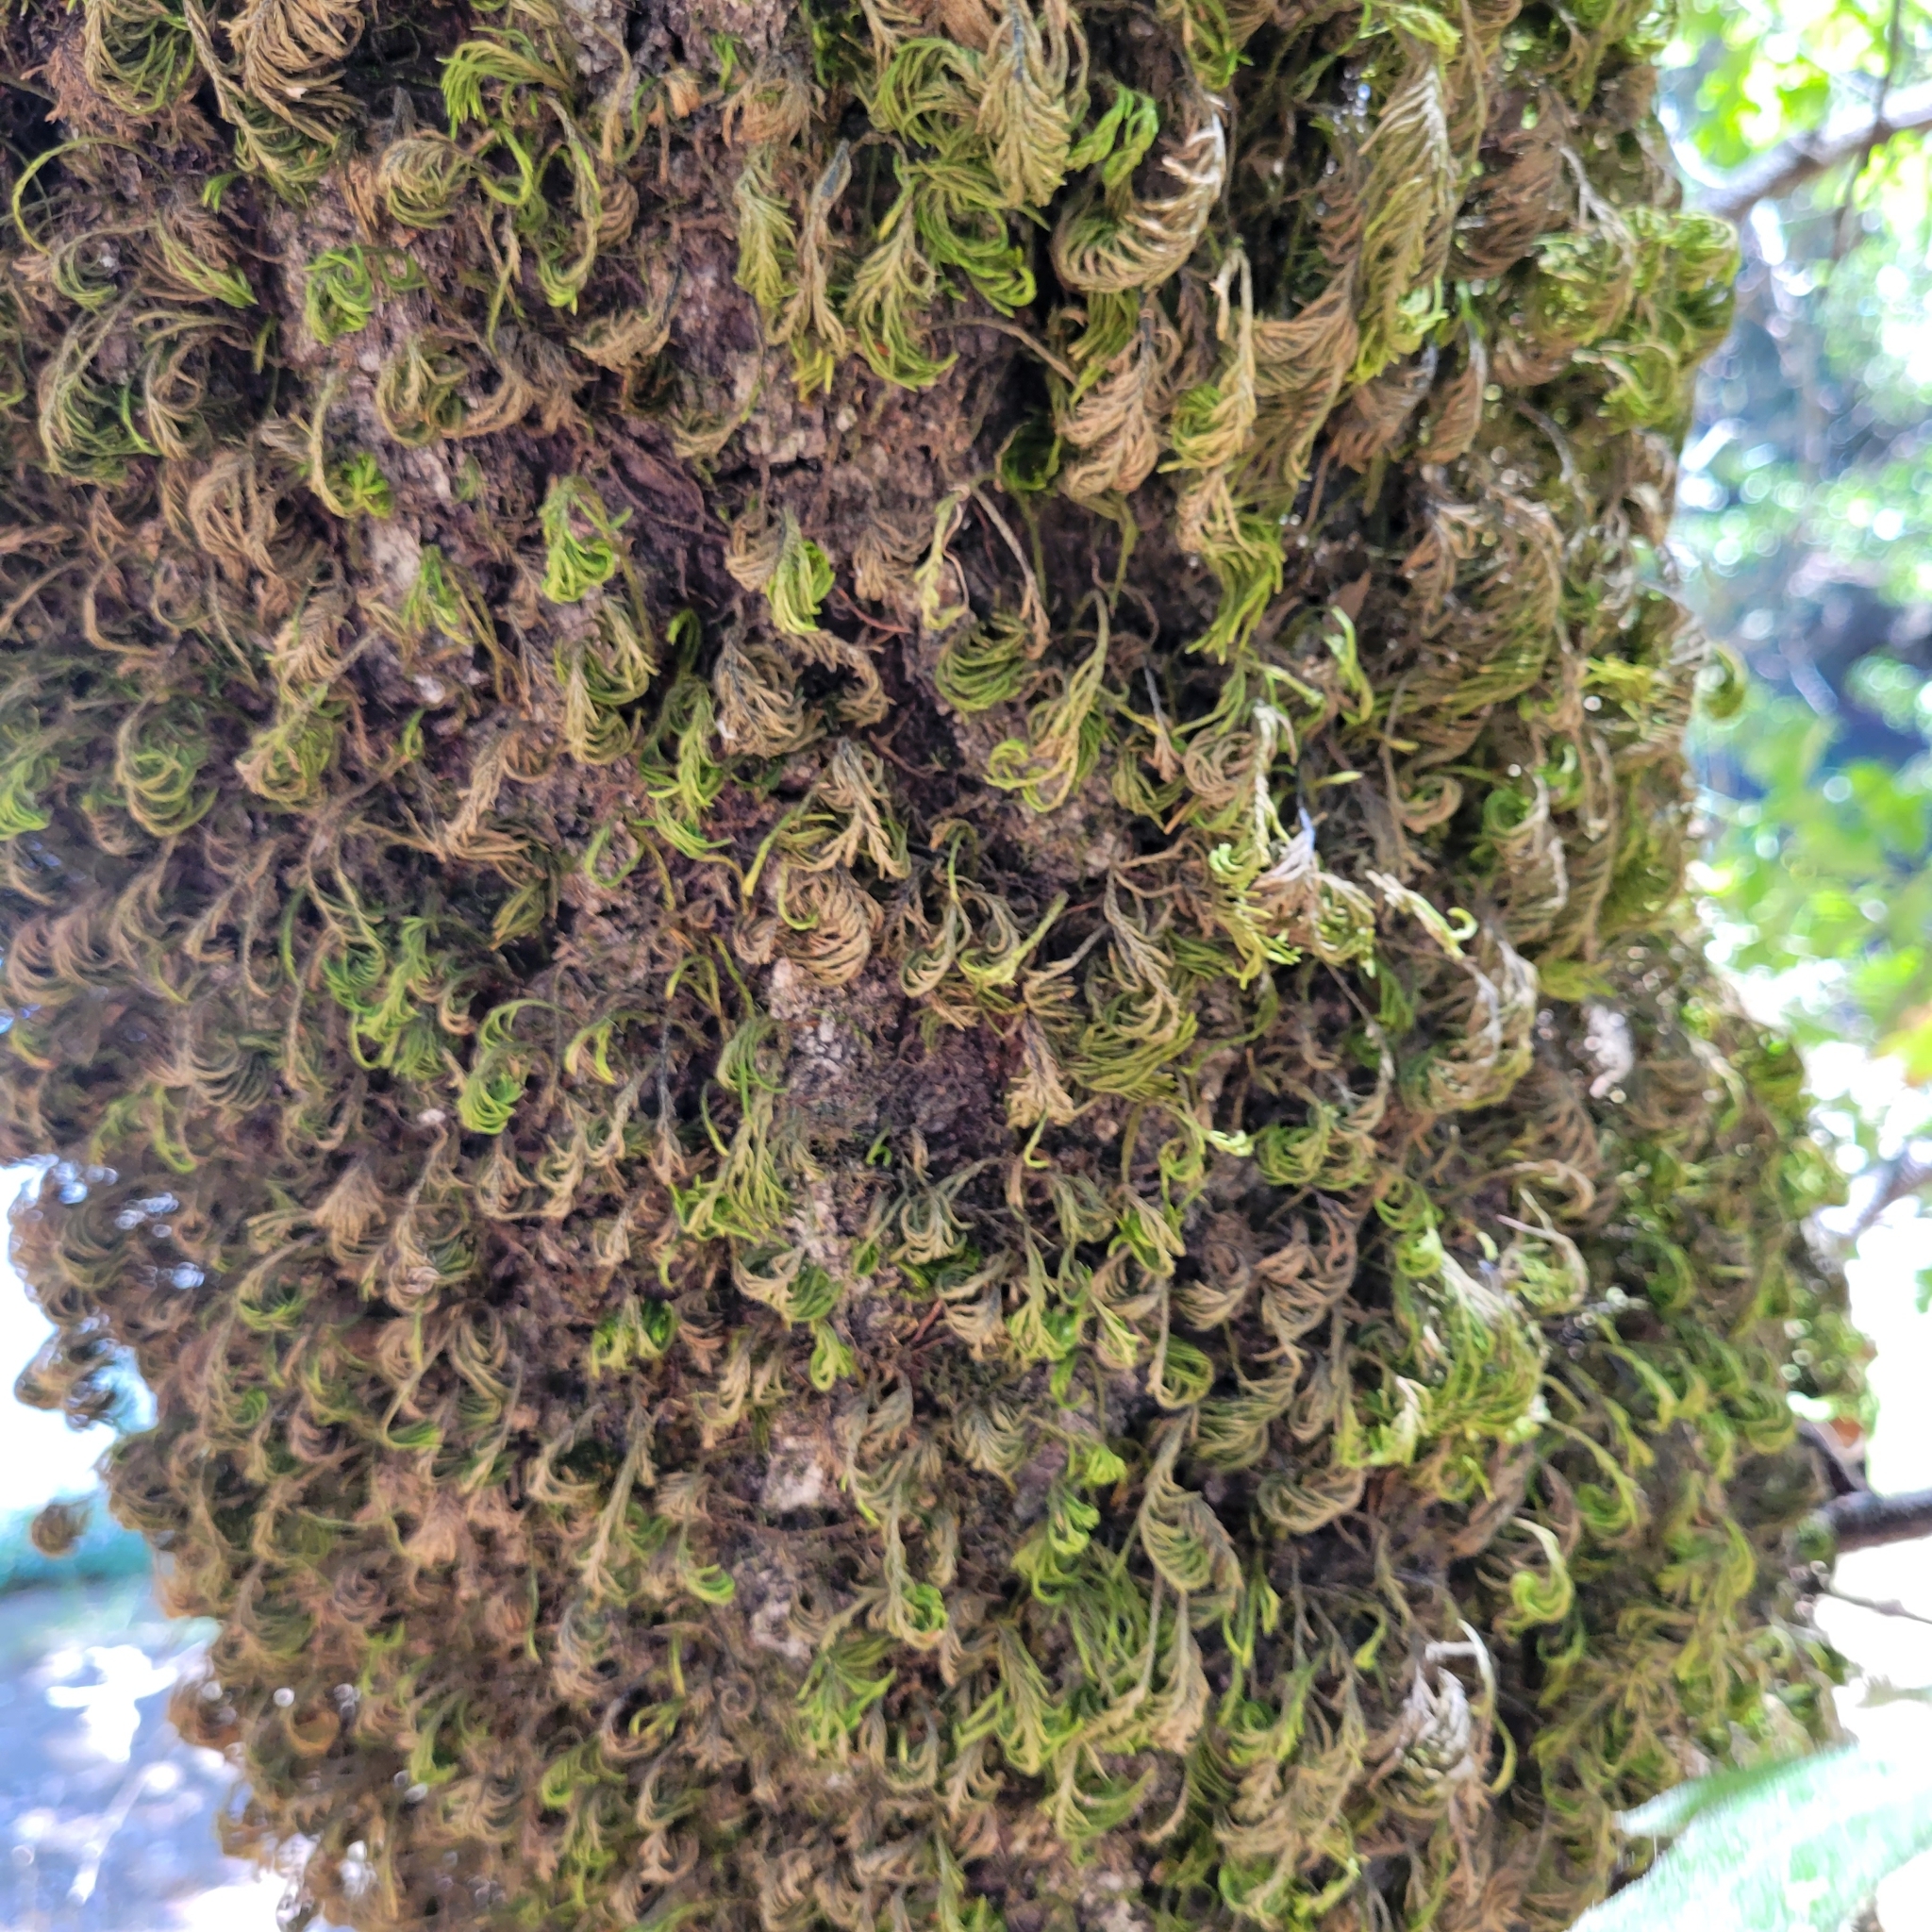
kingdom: Plantae
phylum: Bryophyta
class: Bryopsida
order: Hypnales
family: Cryphaeaceae
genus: Dendroalsia
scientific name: Dendroalsia abietina
